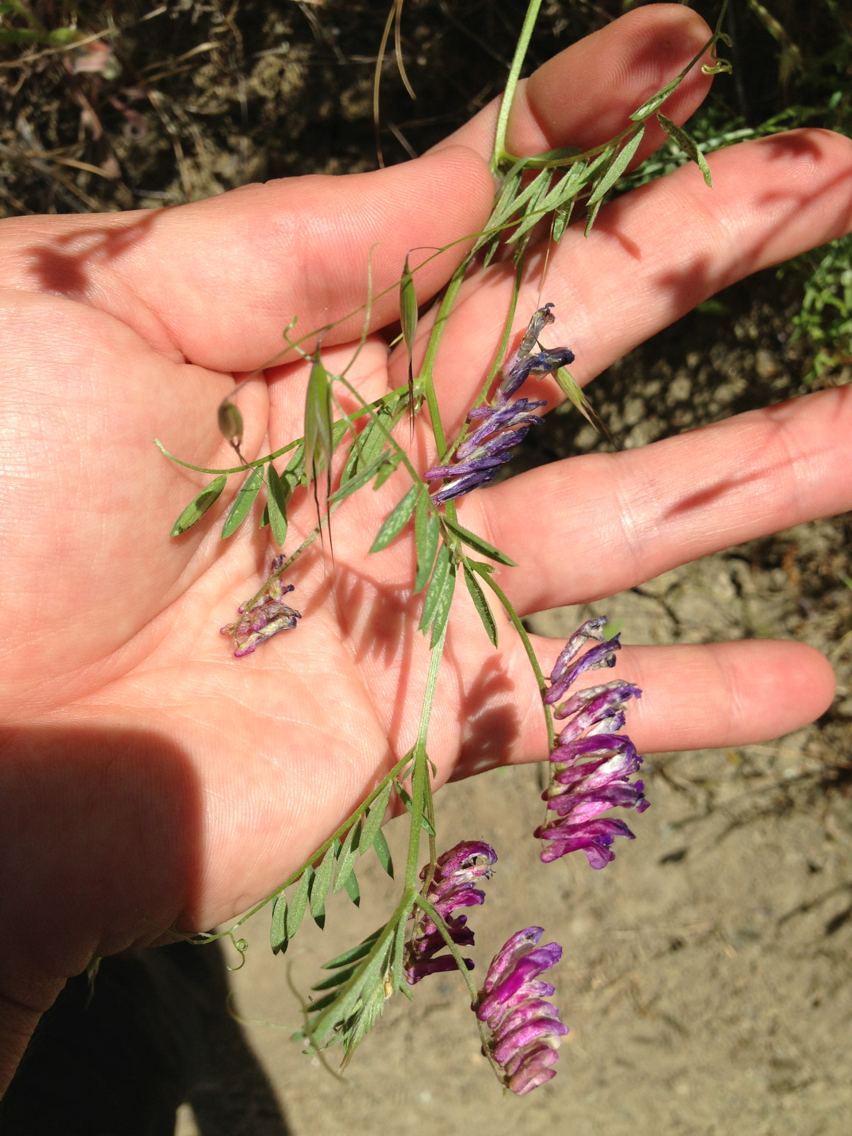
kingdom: Plantae
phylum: Tracheophyta
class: Magnoliopsida
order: Fabales
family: Fabaceae
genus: Vicia
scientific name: Vicia villosa
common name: Fodder vetch
